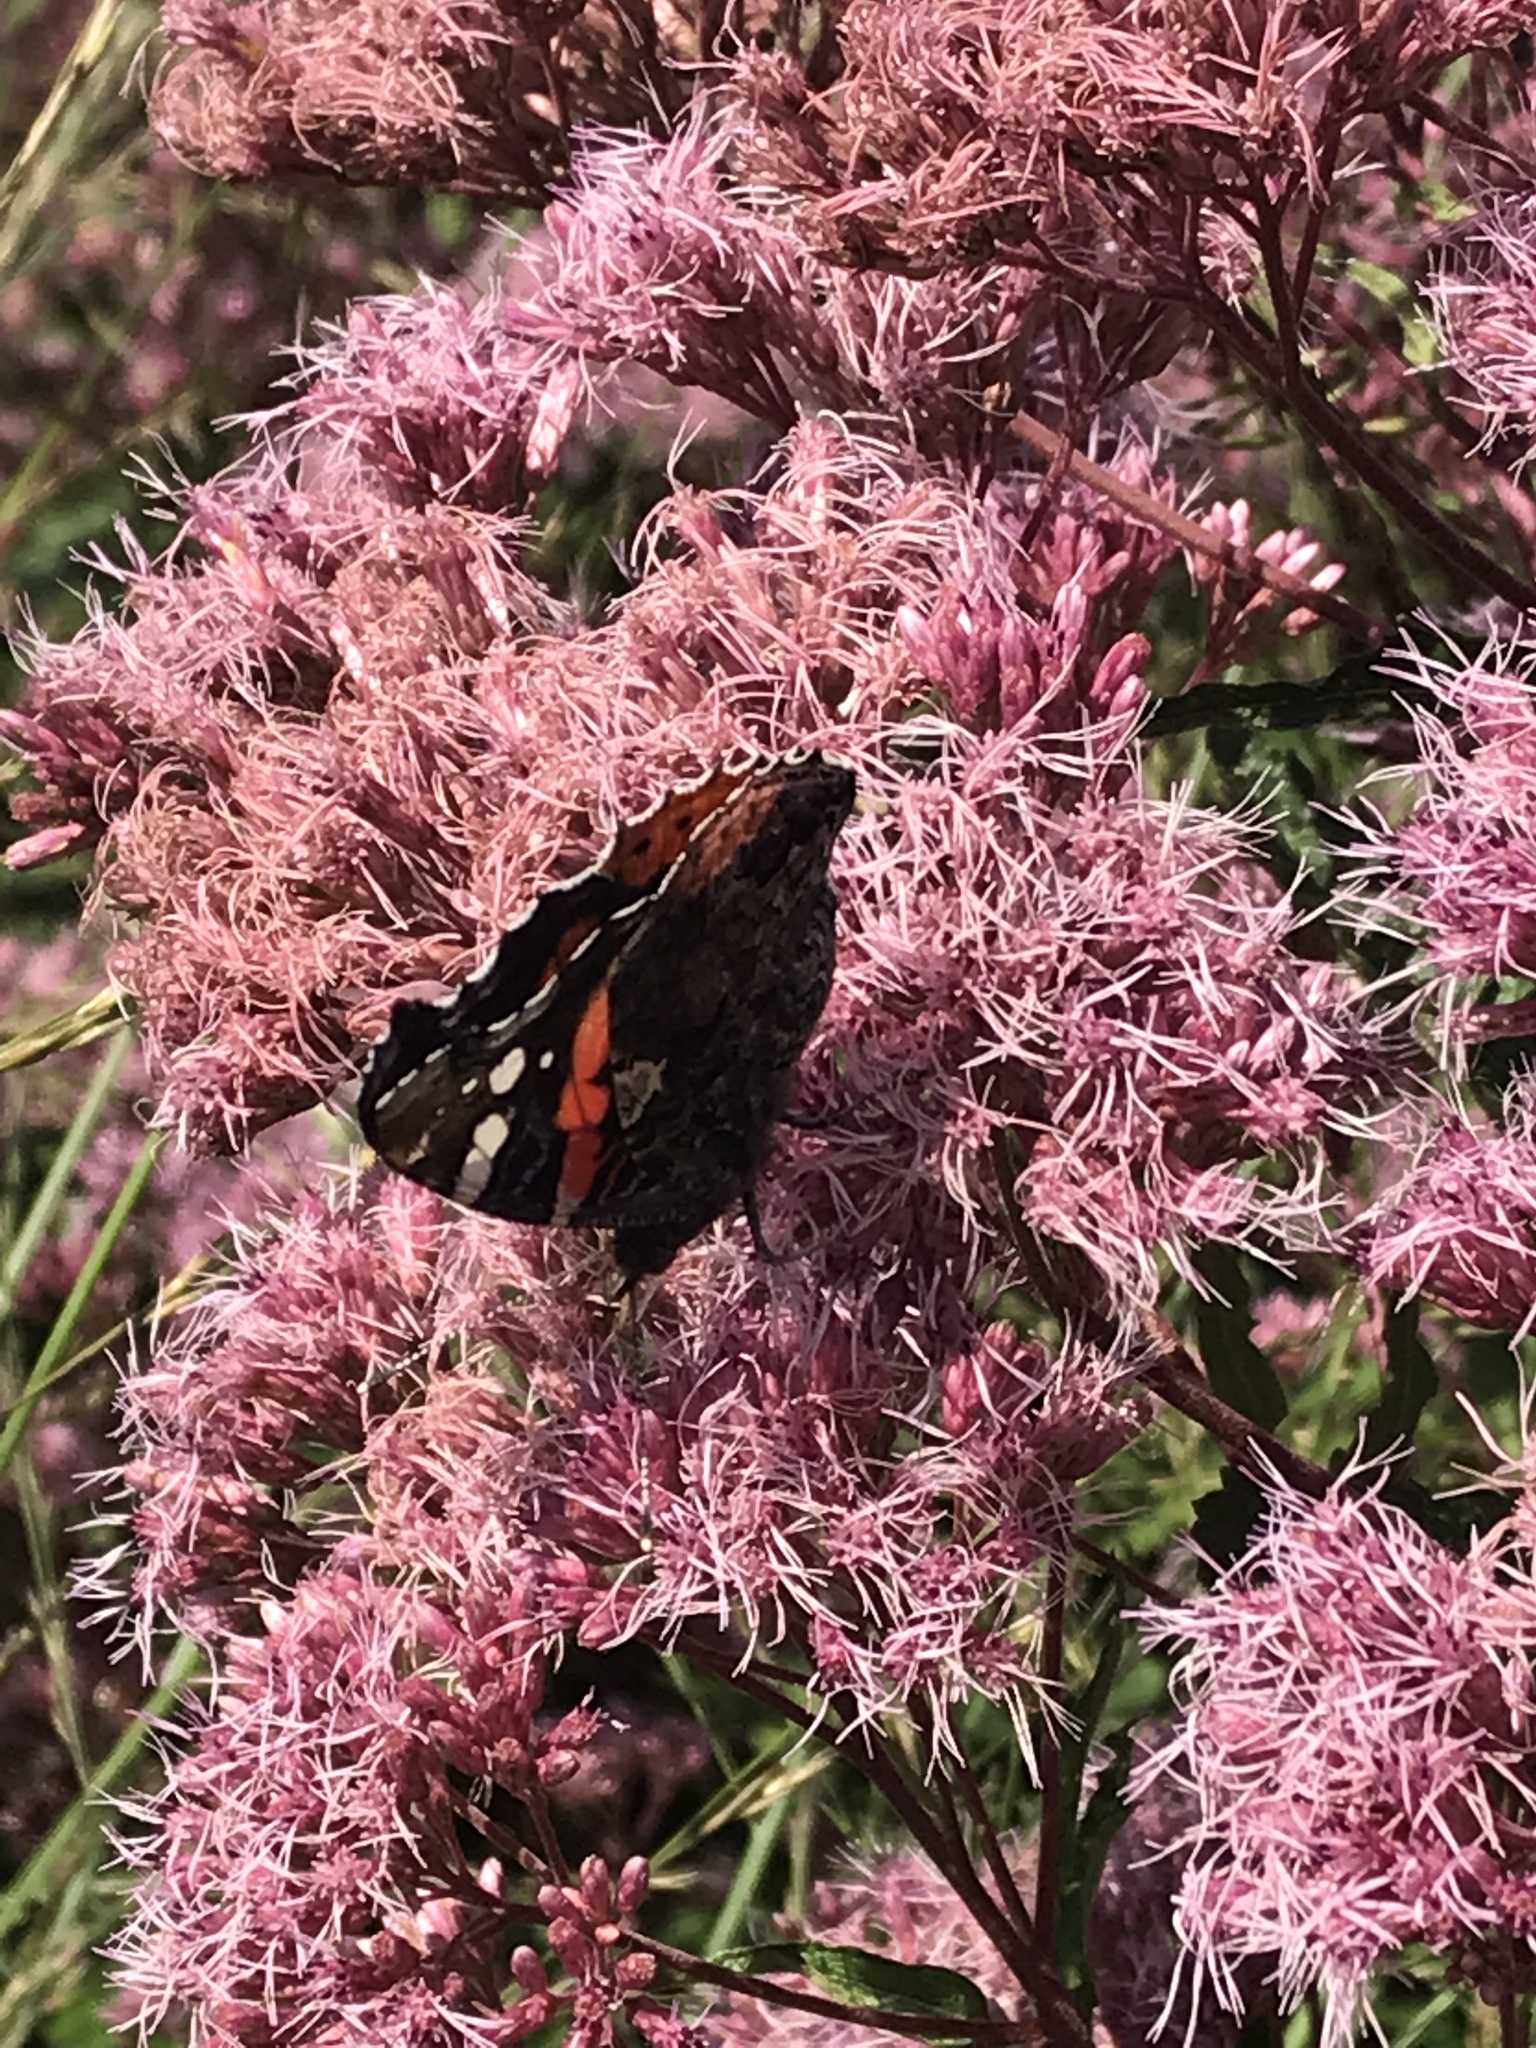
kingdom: Animalia
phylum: Arthropoda
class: Insecta
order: Lepidoptera
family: Nymphalidae
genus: Vanessa
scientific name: Vanessa atalanta
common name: Red admiral
